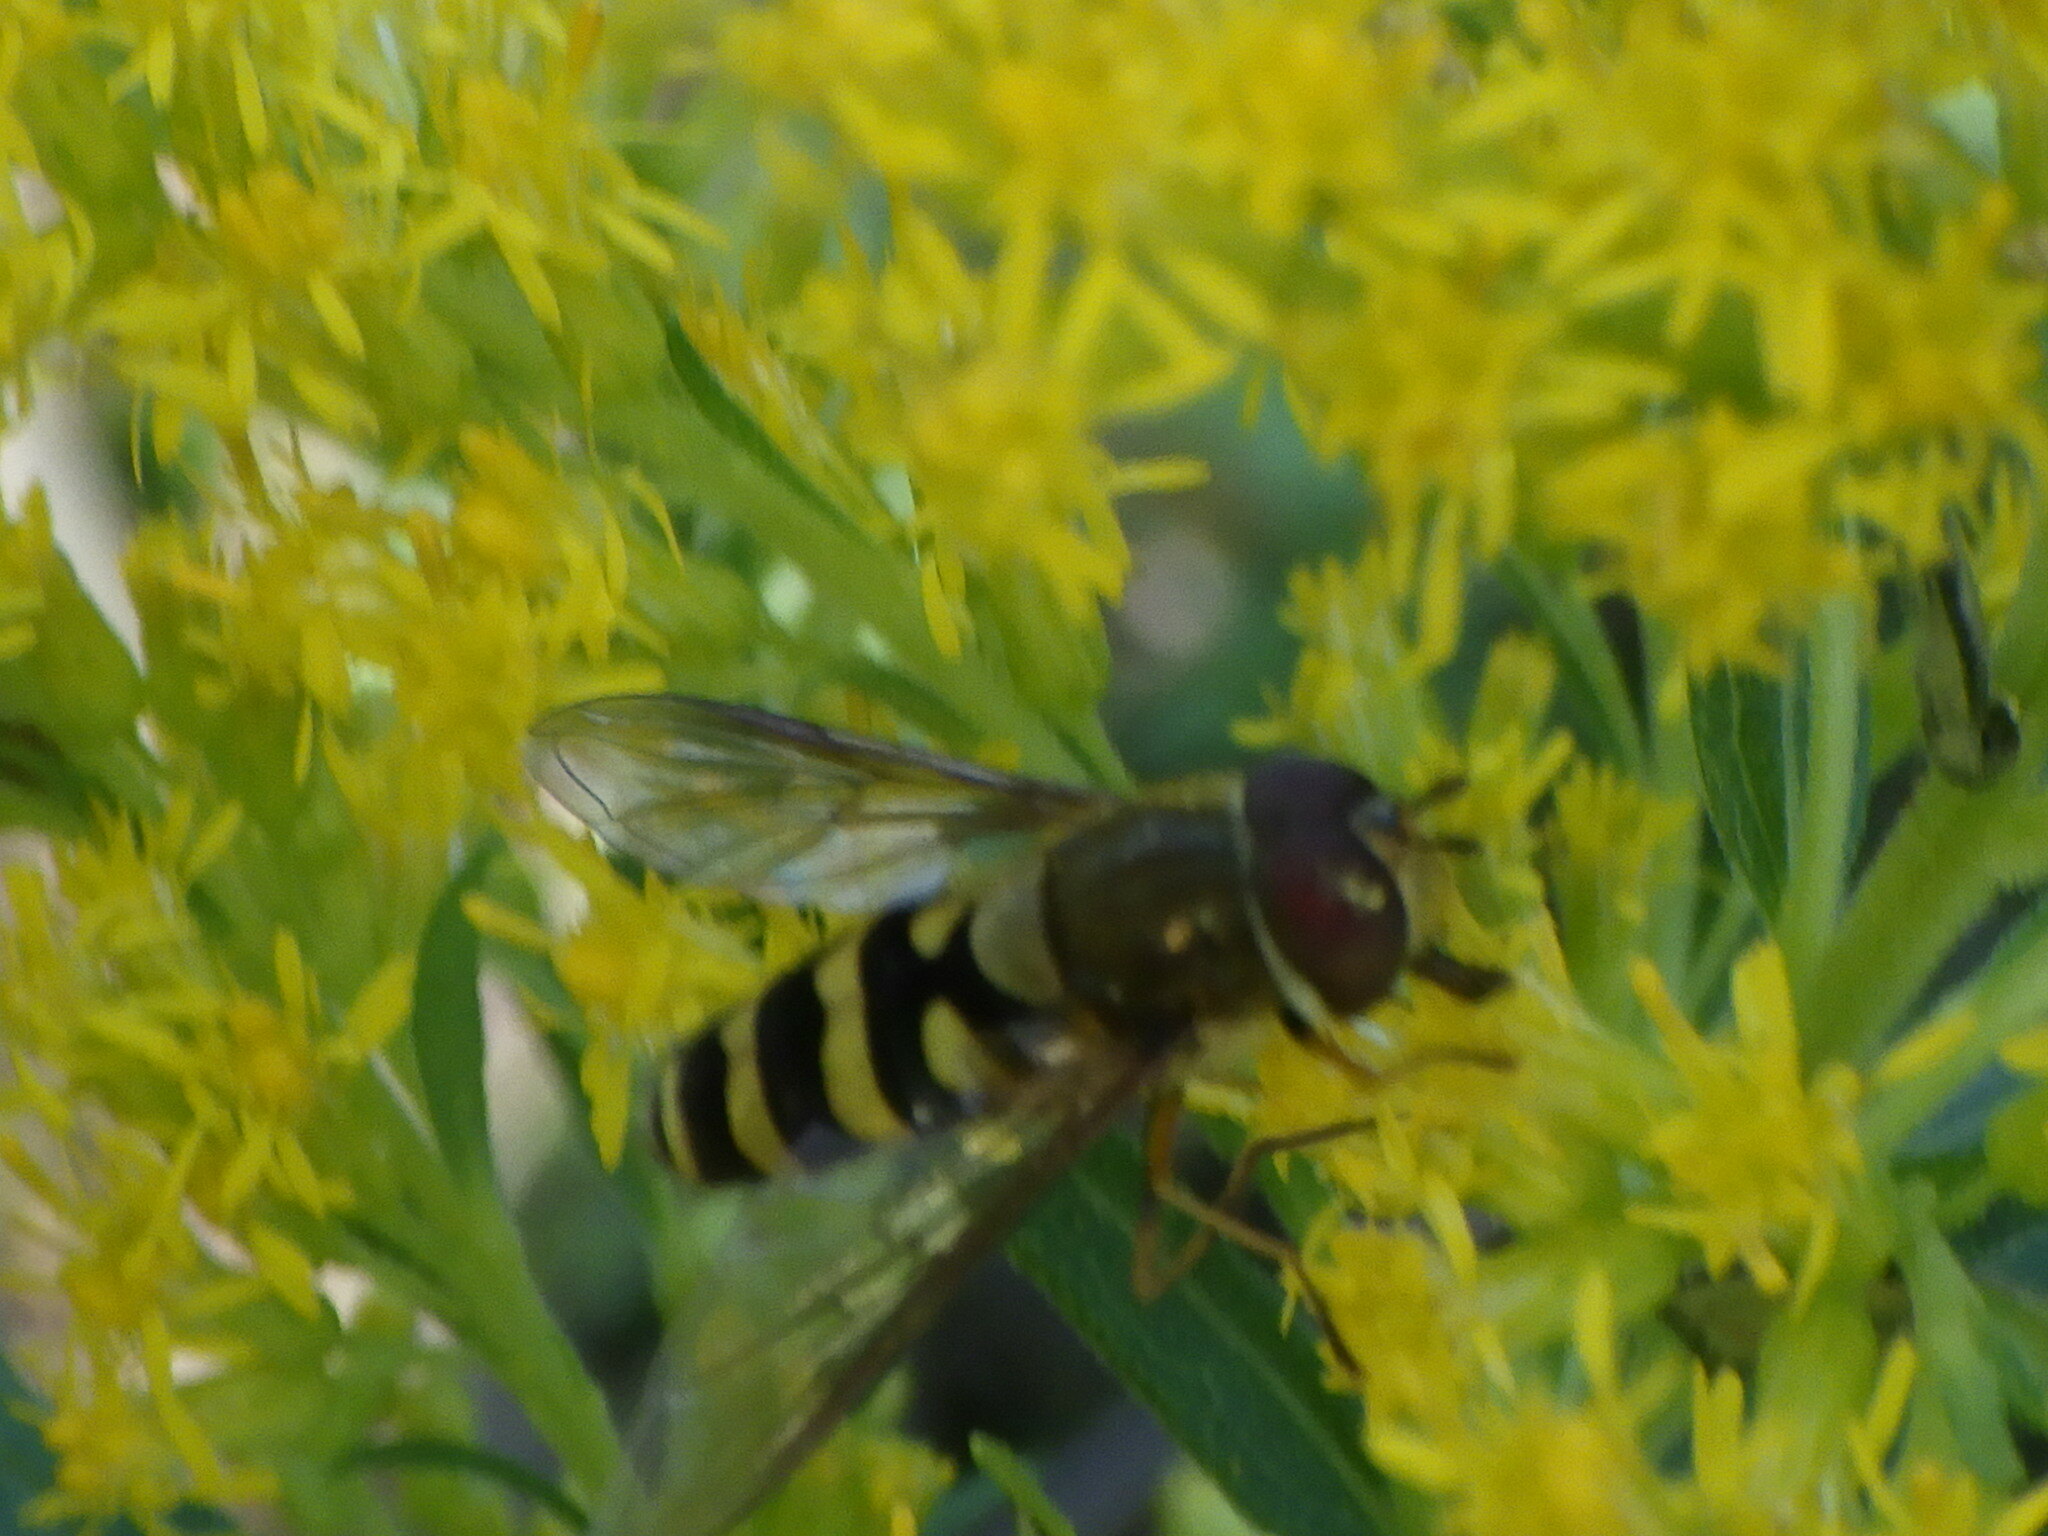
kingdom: Animalia
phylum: Arthropoda
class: Insecta
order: Diptera
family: Syrphidae
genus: Syrphus
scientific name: Syrphus
